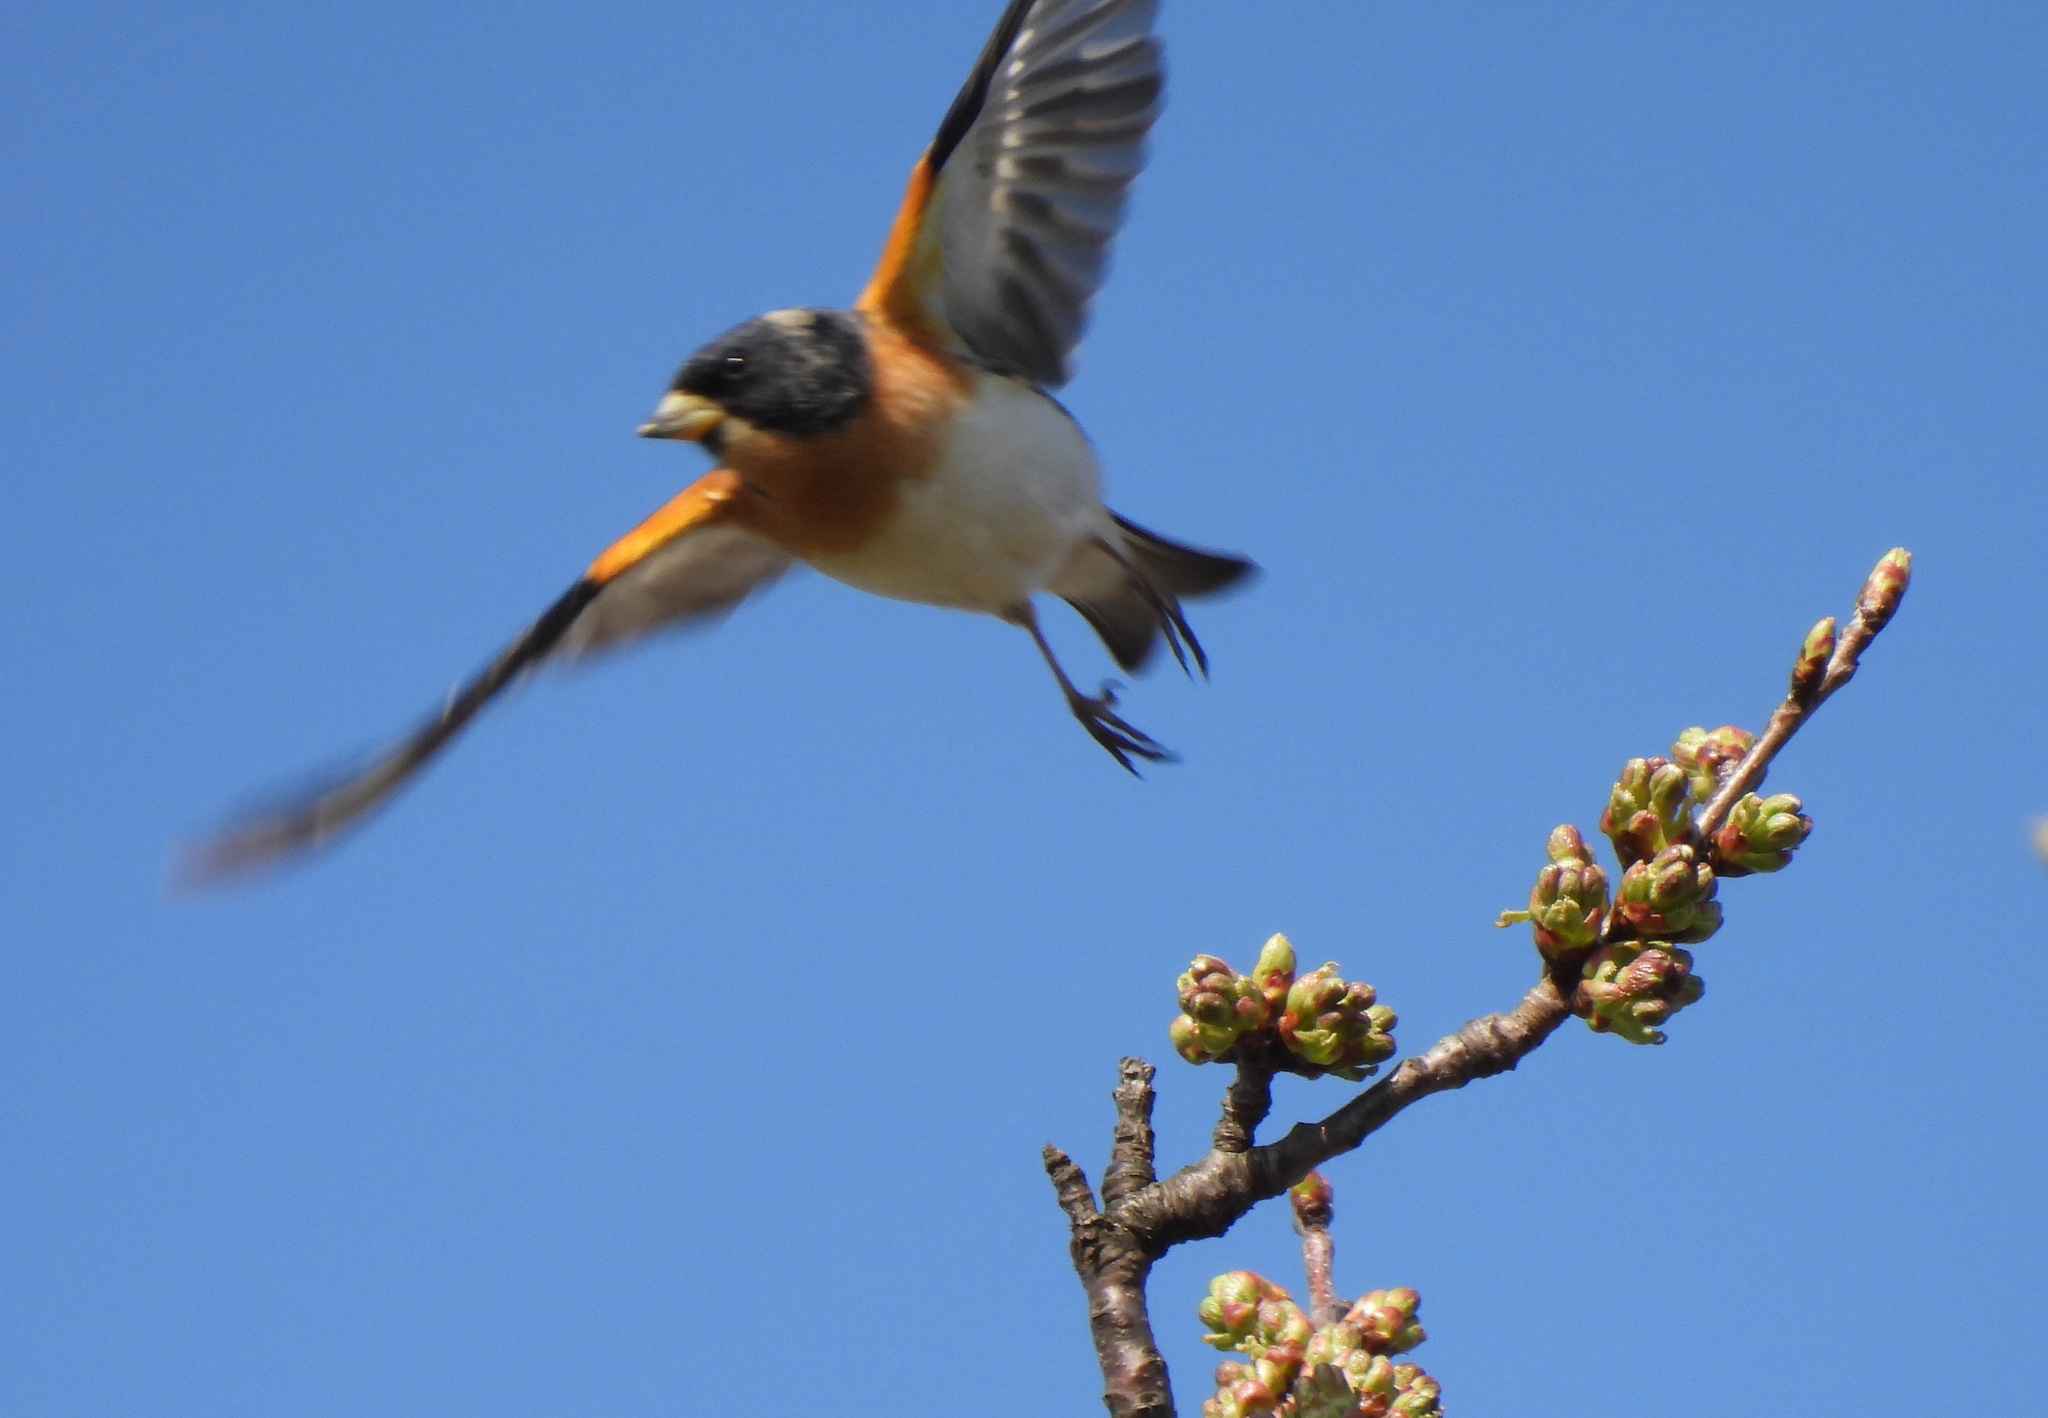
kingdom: Animalia
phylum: Chordata
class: Aves
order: Passeriformes
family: Fringillidae
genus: Fringilla
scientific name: Fringilla montifringilla
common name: Brambling
